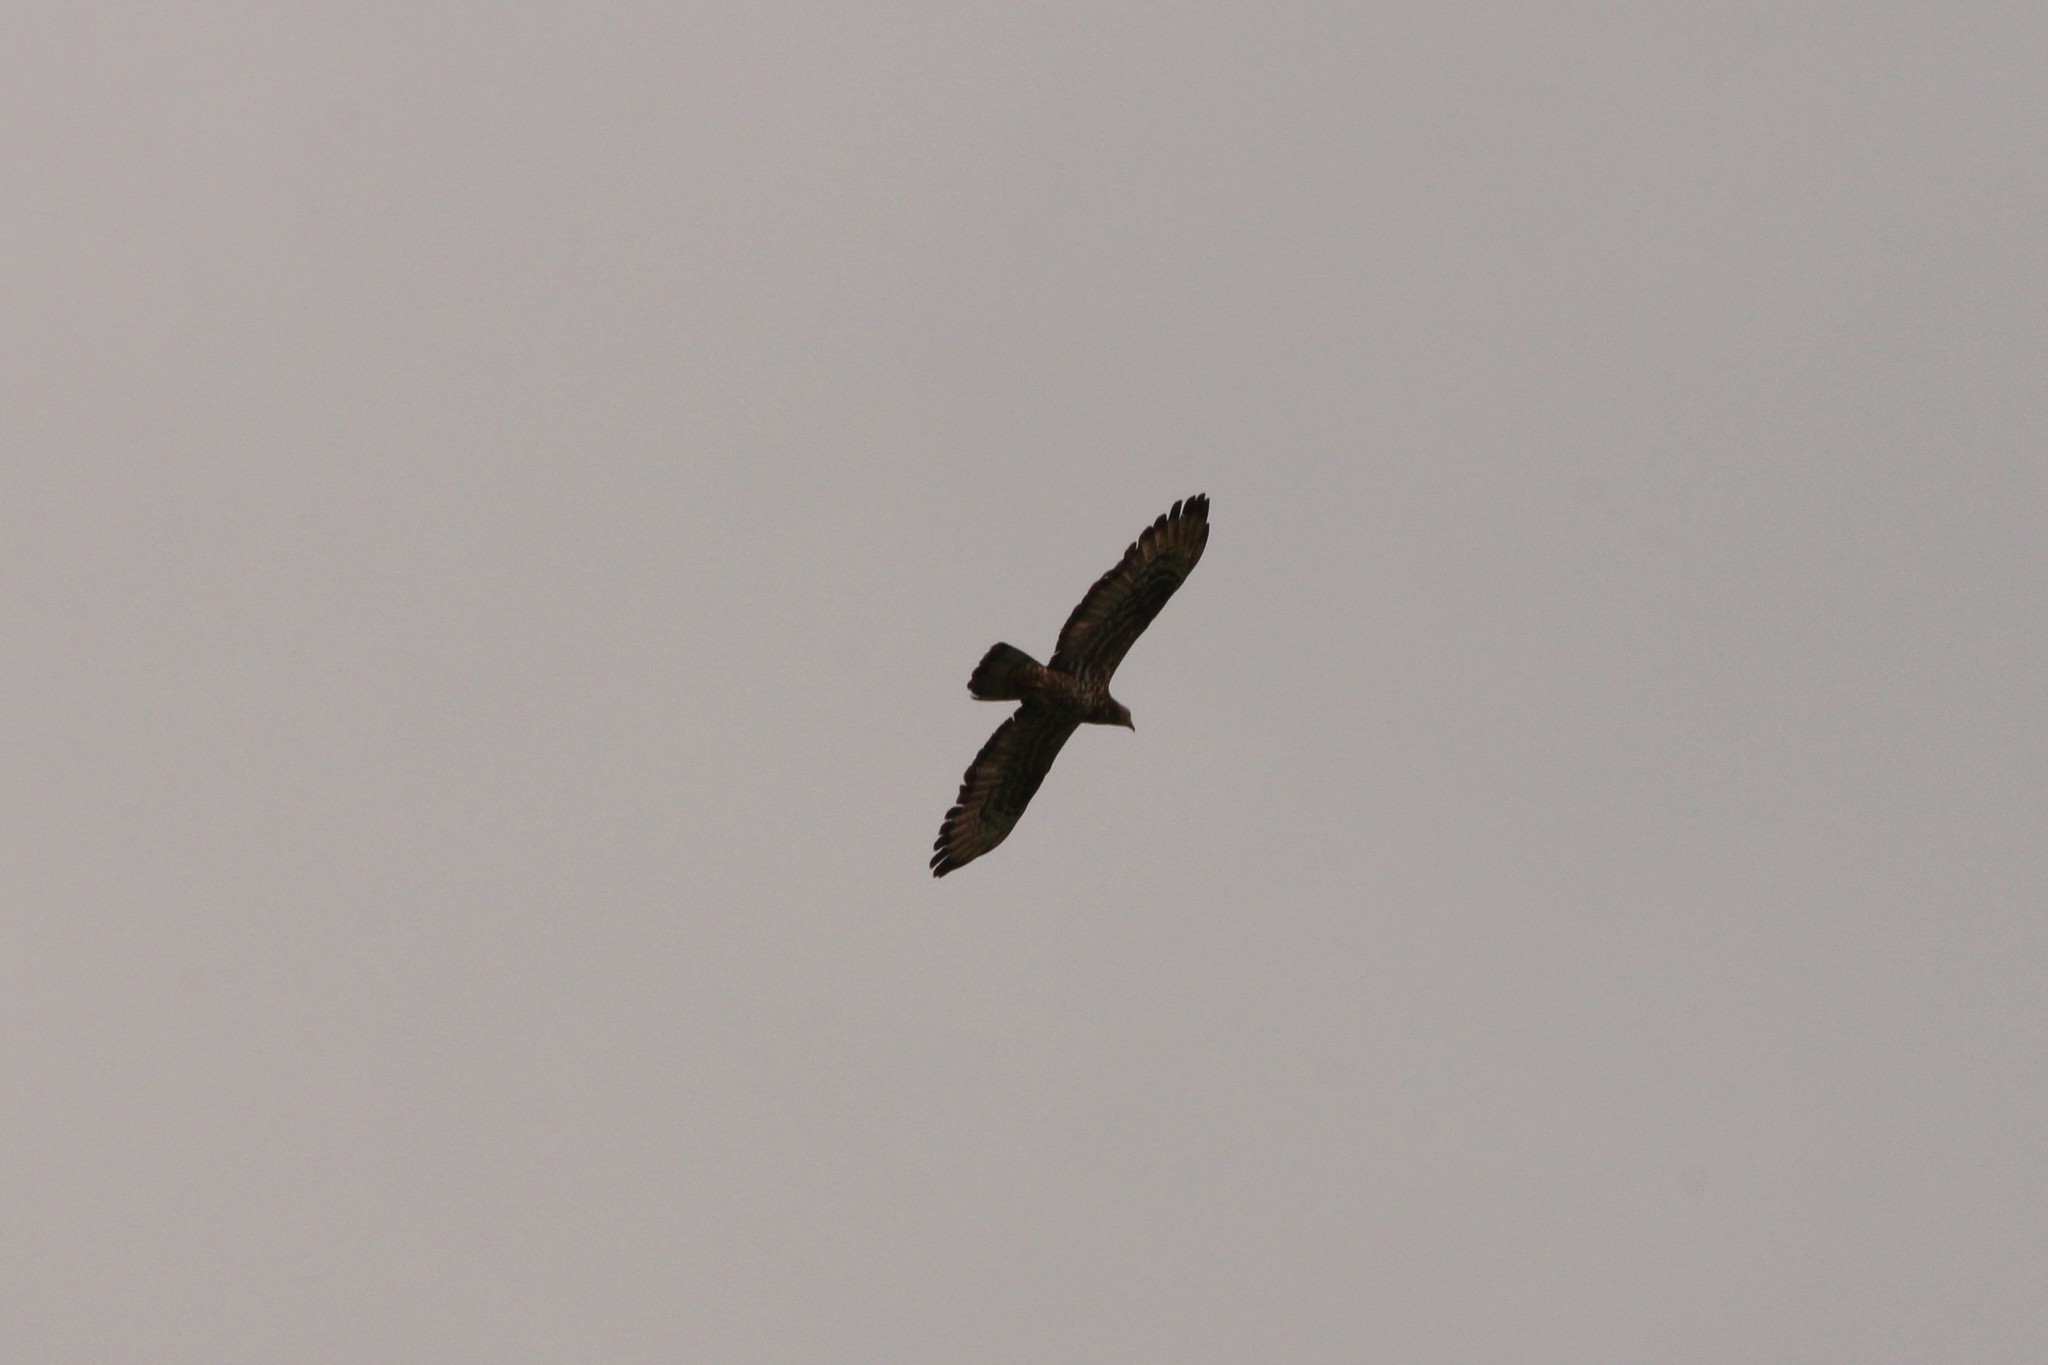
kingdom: Animalia
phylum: Chordata
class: Aves
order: Accipitriformes
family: Accipitridae
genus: Pernis
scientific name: Pernis apivorus
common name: European honey buzzard
